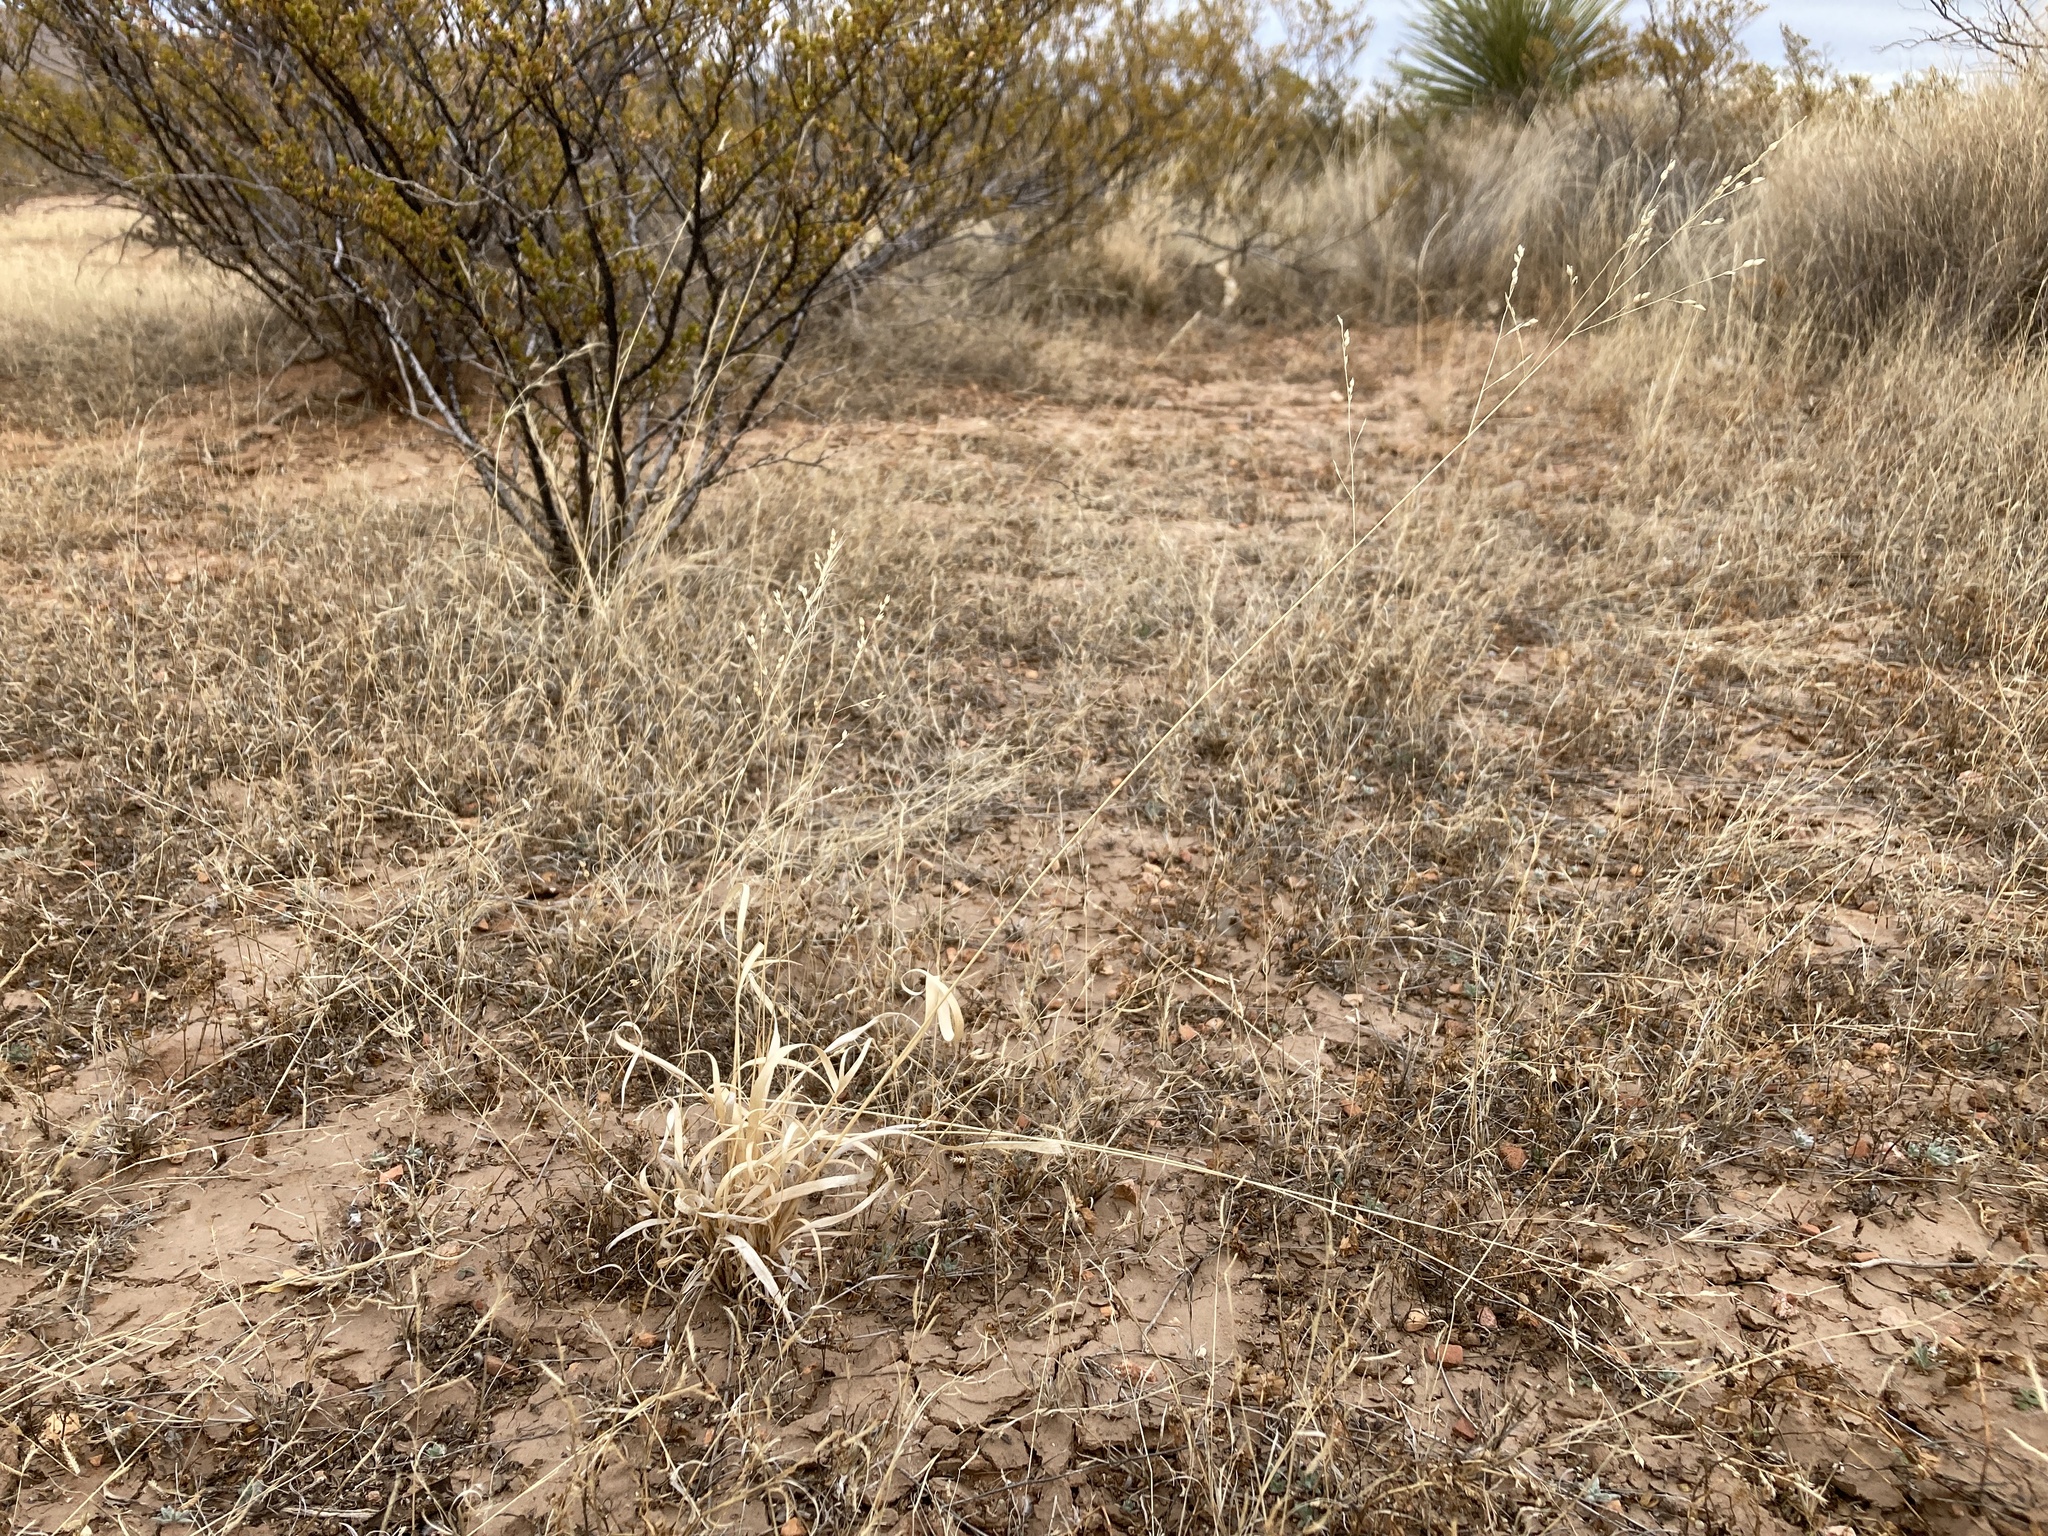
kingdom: Plantae
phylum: Tracheophyta
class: Liliopsida
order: Poales
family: Poaceae
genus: Panicum
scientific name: Panicum hallii
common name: Hall's witchgrass
